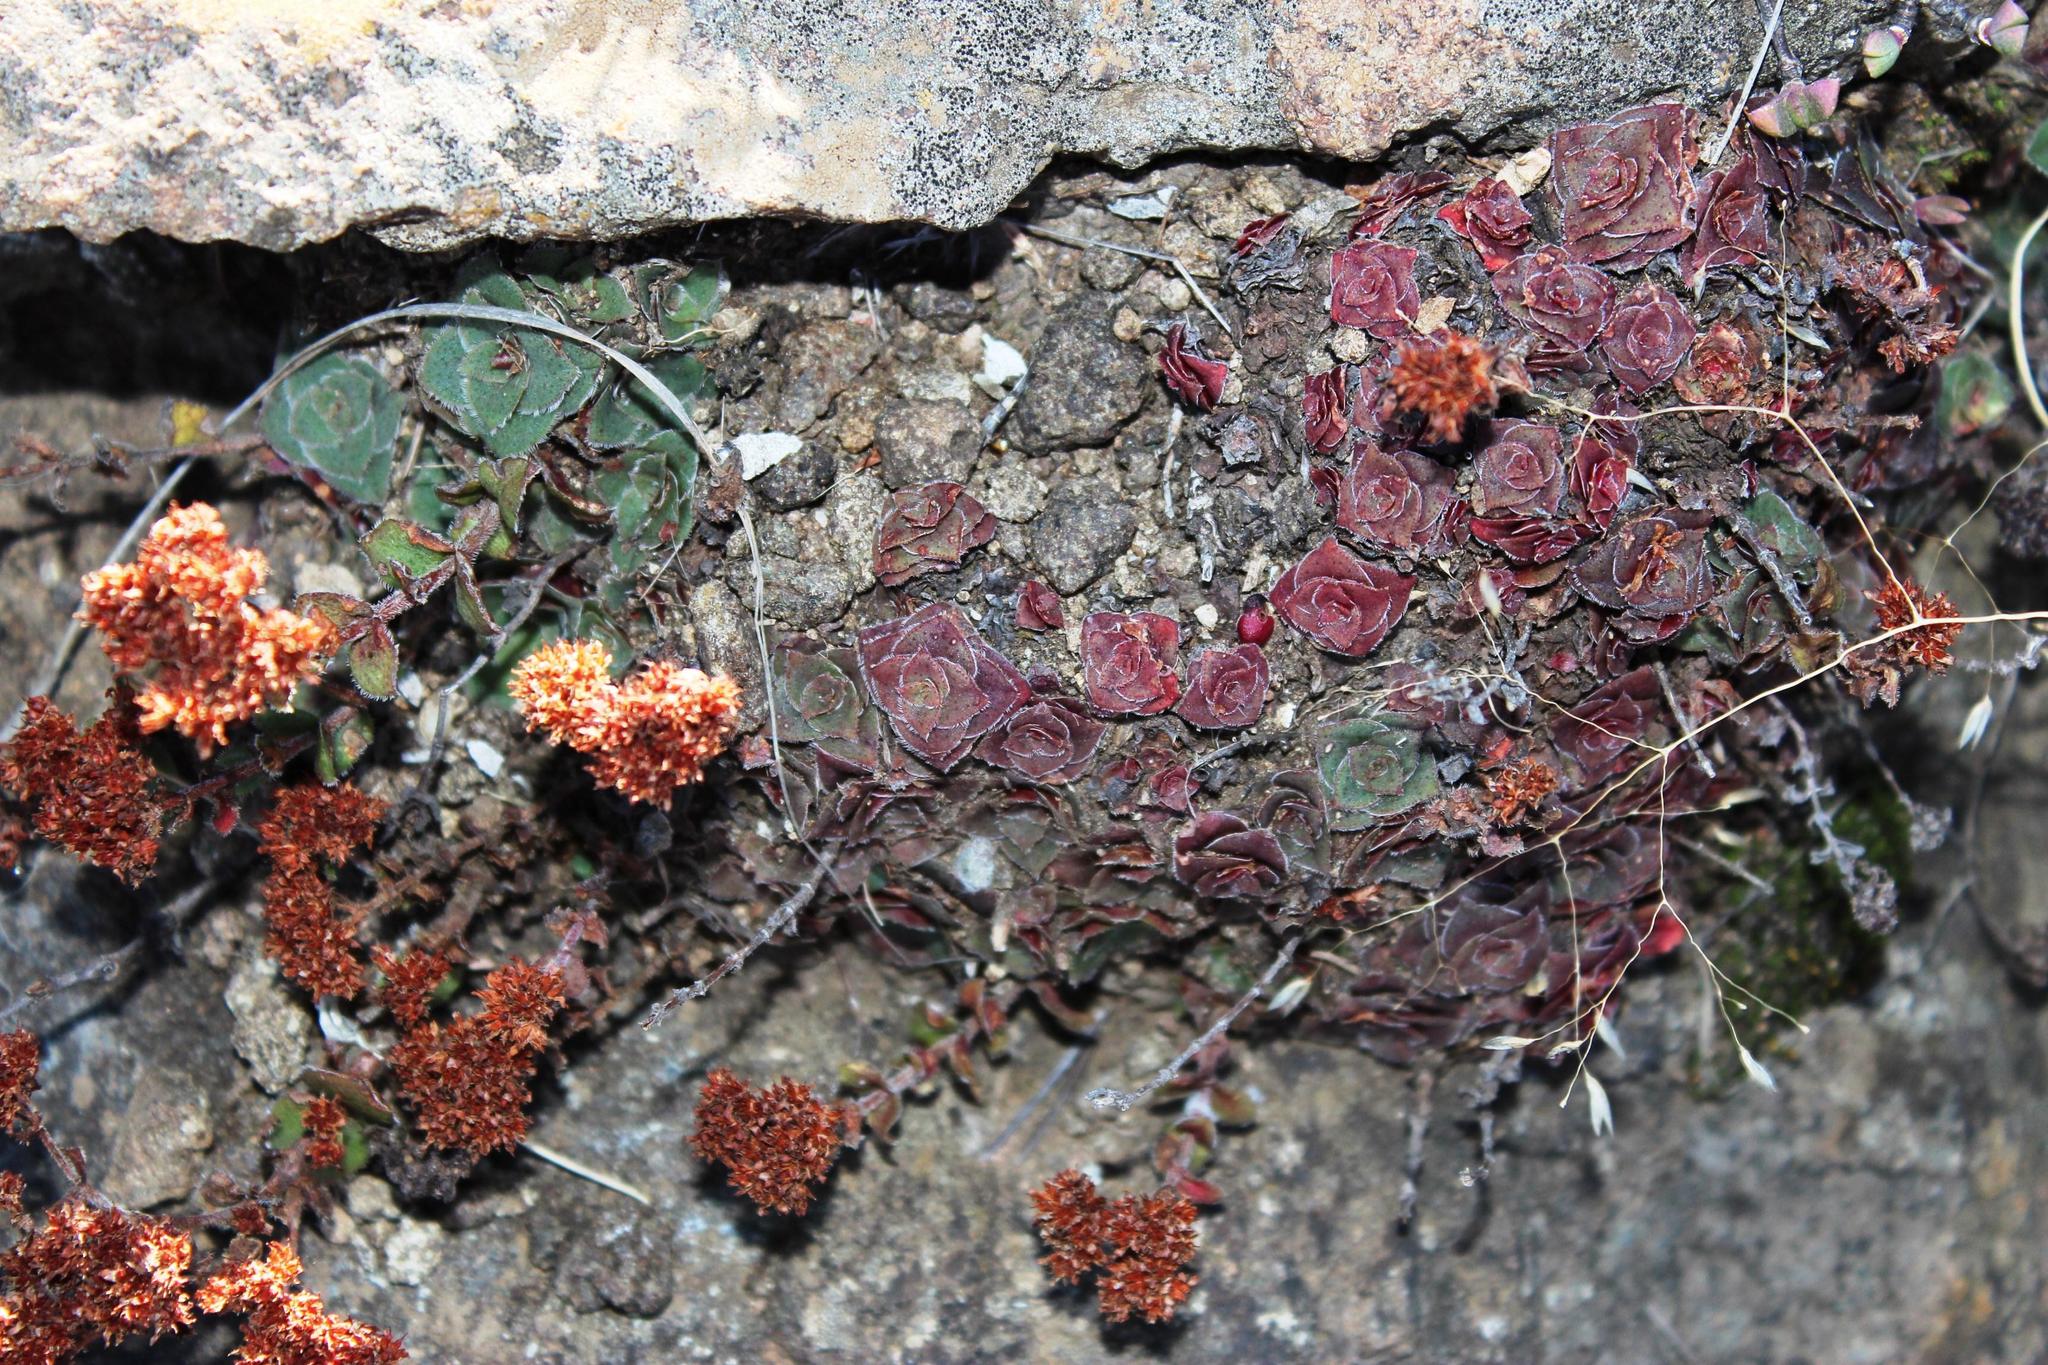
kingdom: Plantae
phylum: Tracheophyta
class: Magnoliopsida
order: Saxifragales
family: Crassulaceae
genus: Crassula
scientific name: Crassula setulosa
